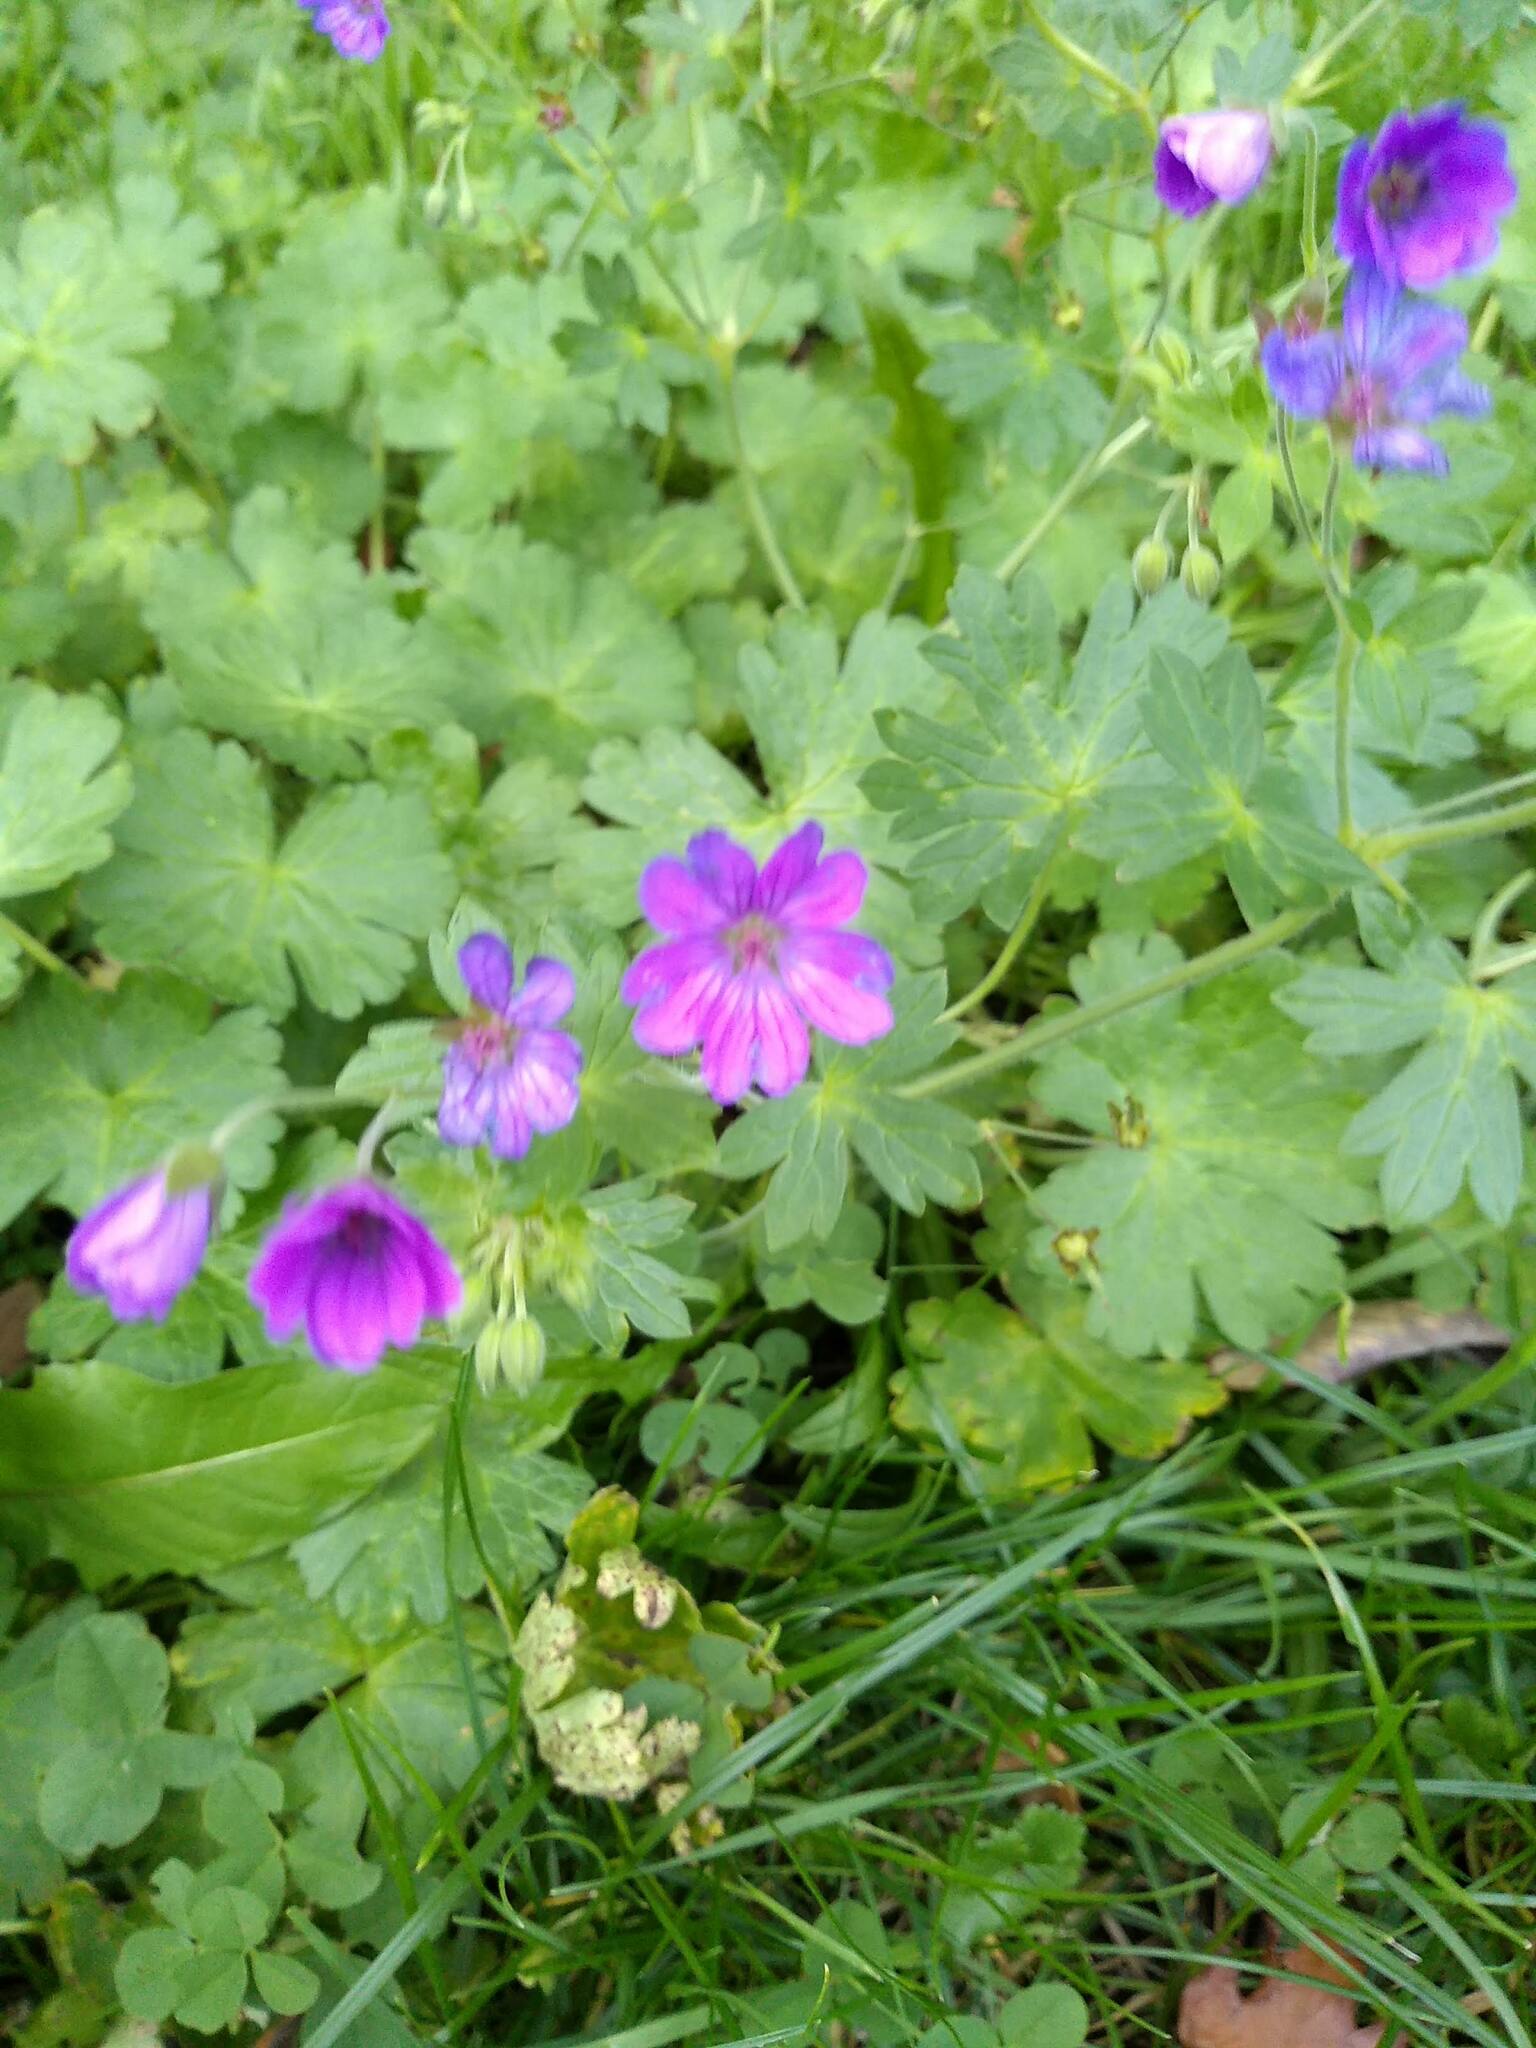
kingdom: Plantae
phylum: Tracheophyta
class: Magnoliopsida
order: Geraniales
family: Geraniaceae
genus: Geranium
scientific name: Geranium pyrenaicum
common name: Hedgerow crane's-bill
